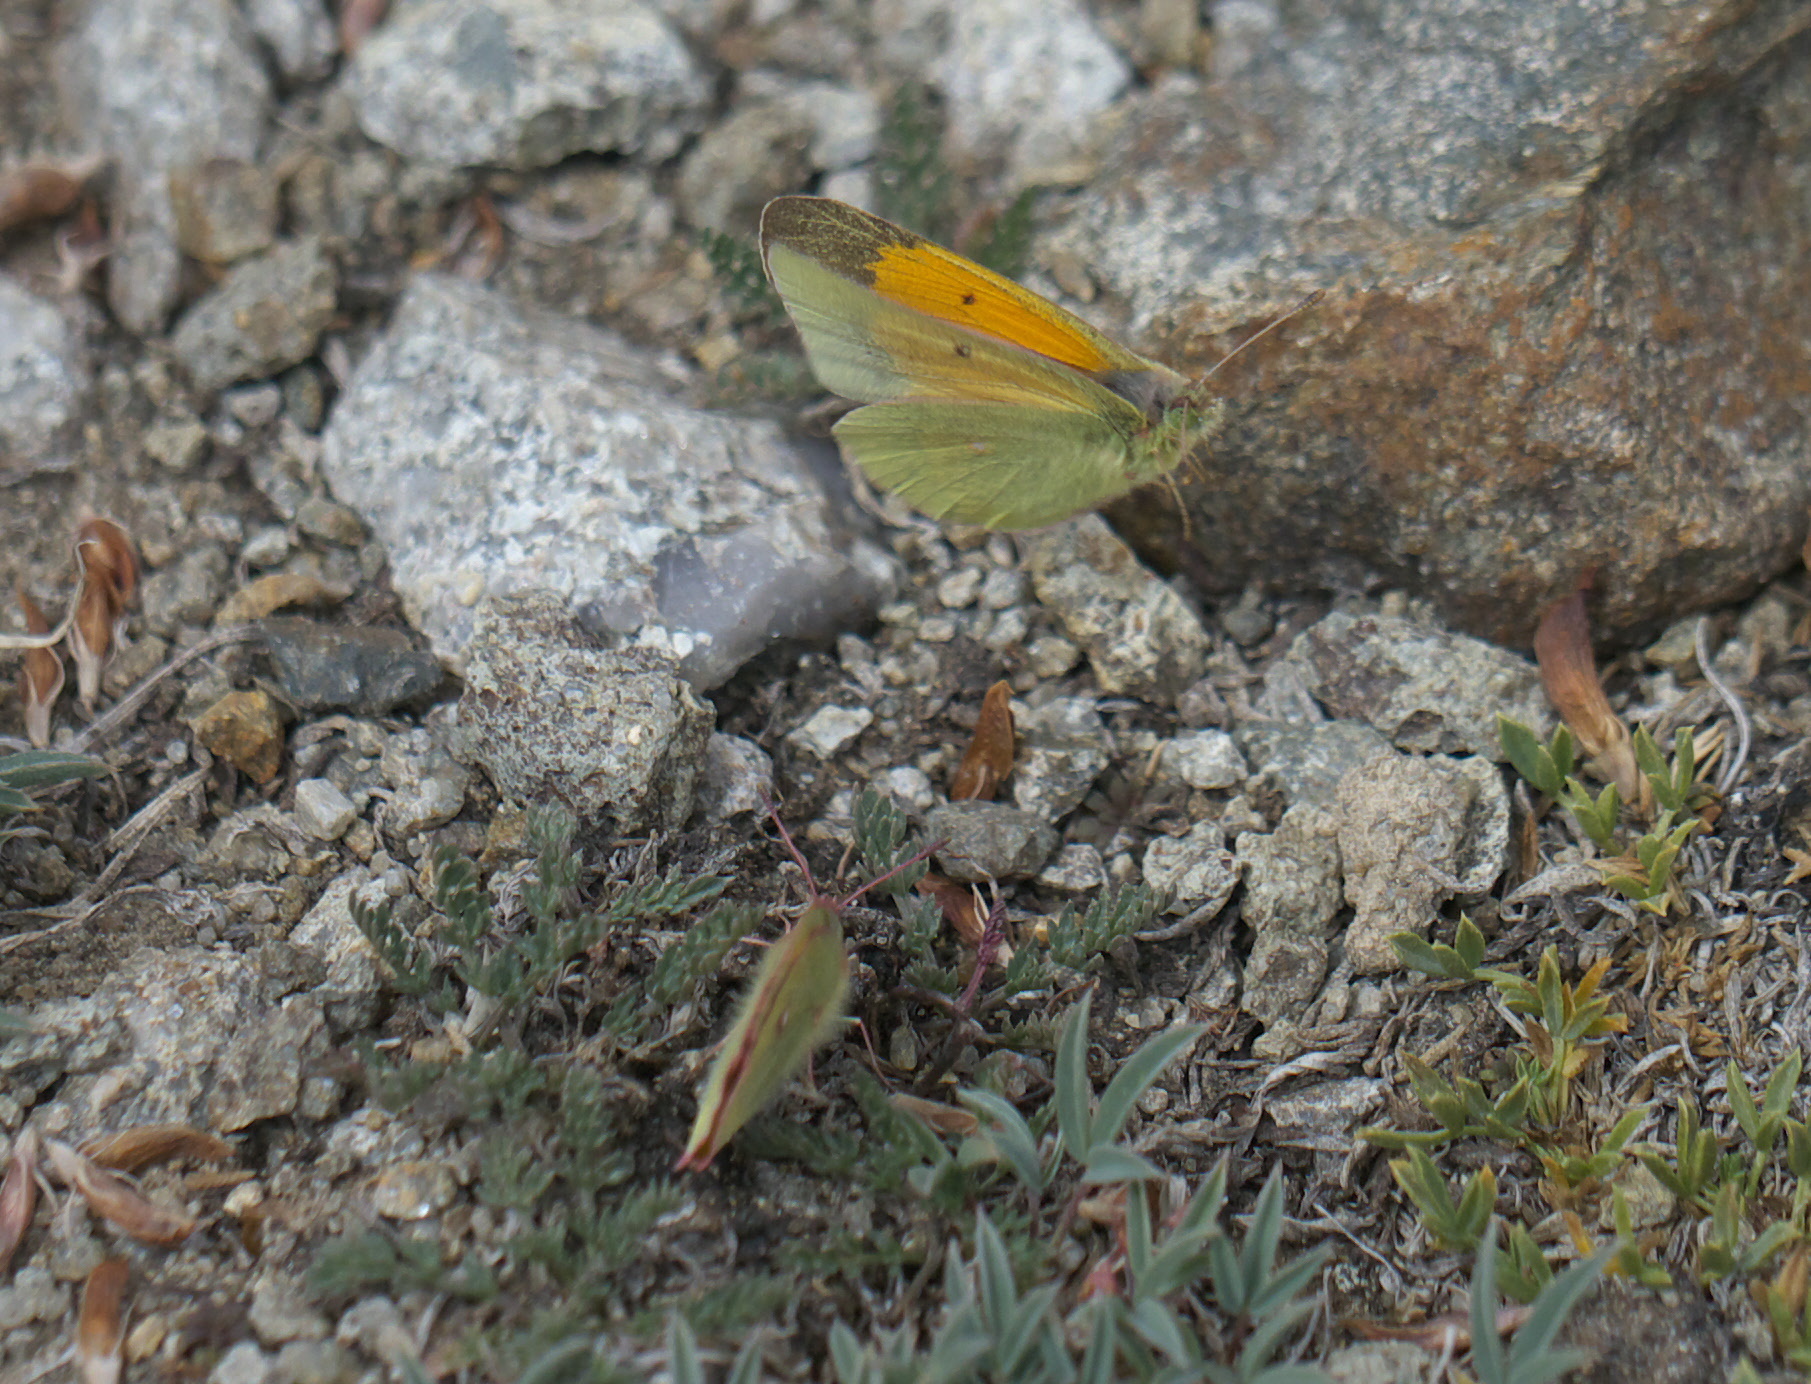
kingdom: Animalia
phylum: Arthropoda
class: Insecta
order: Lepidoptera
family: Pieridae
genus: Colias
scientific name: Colias meadii
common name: Mead's sulphur
